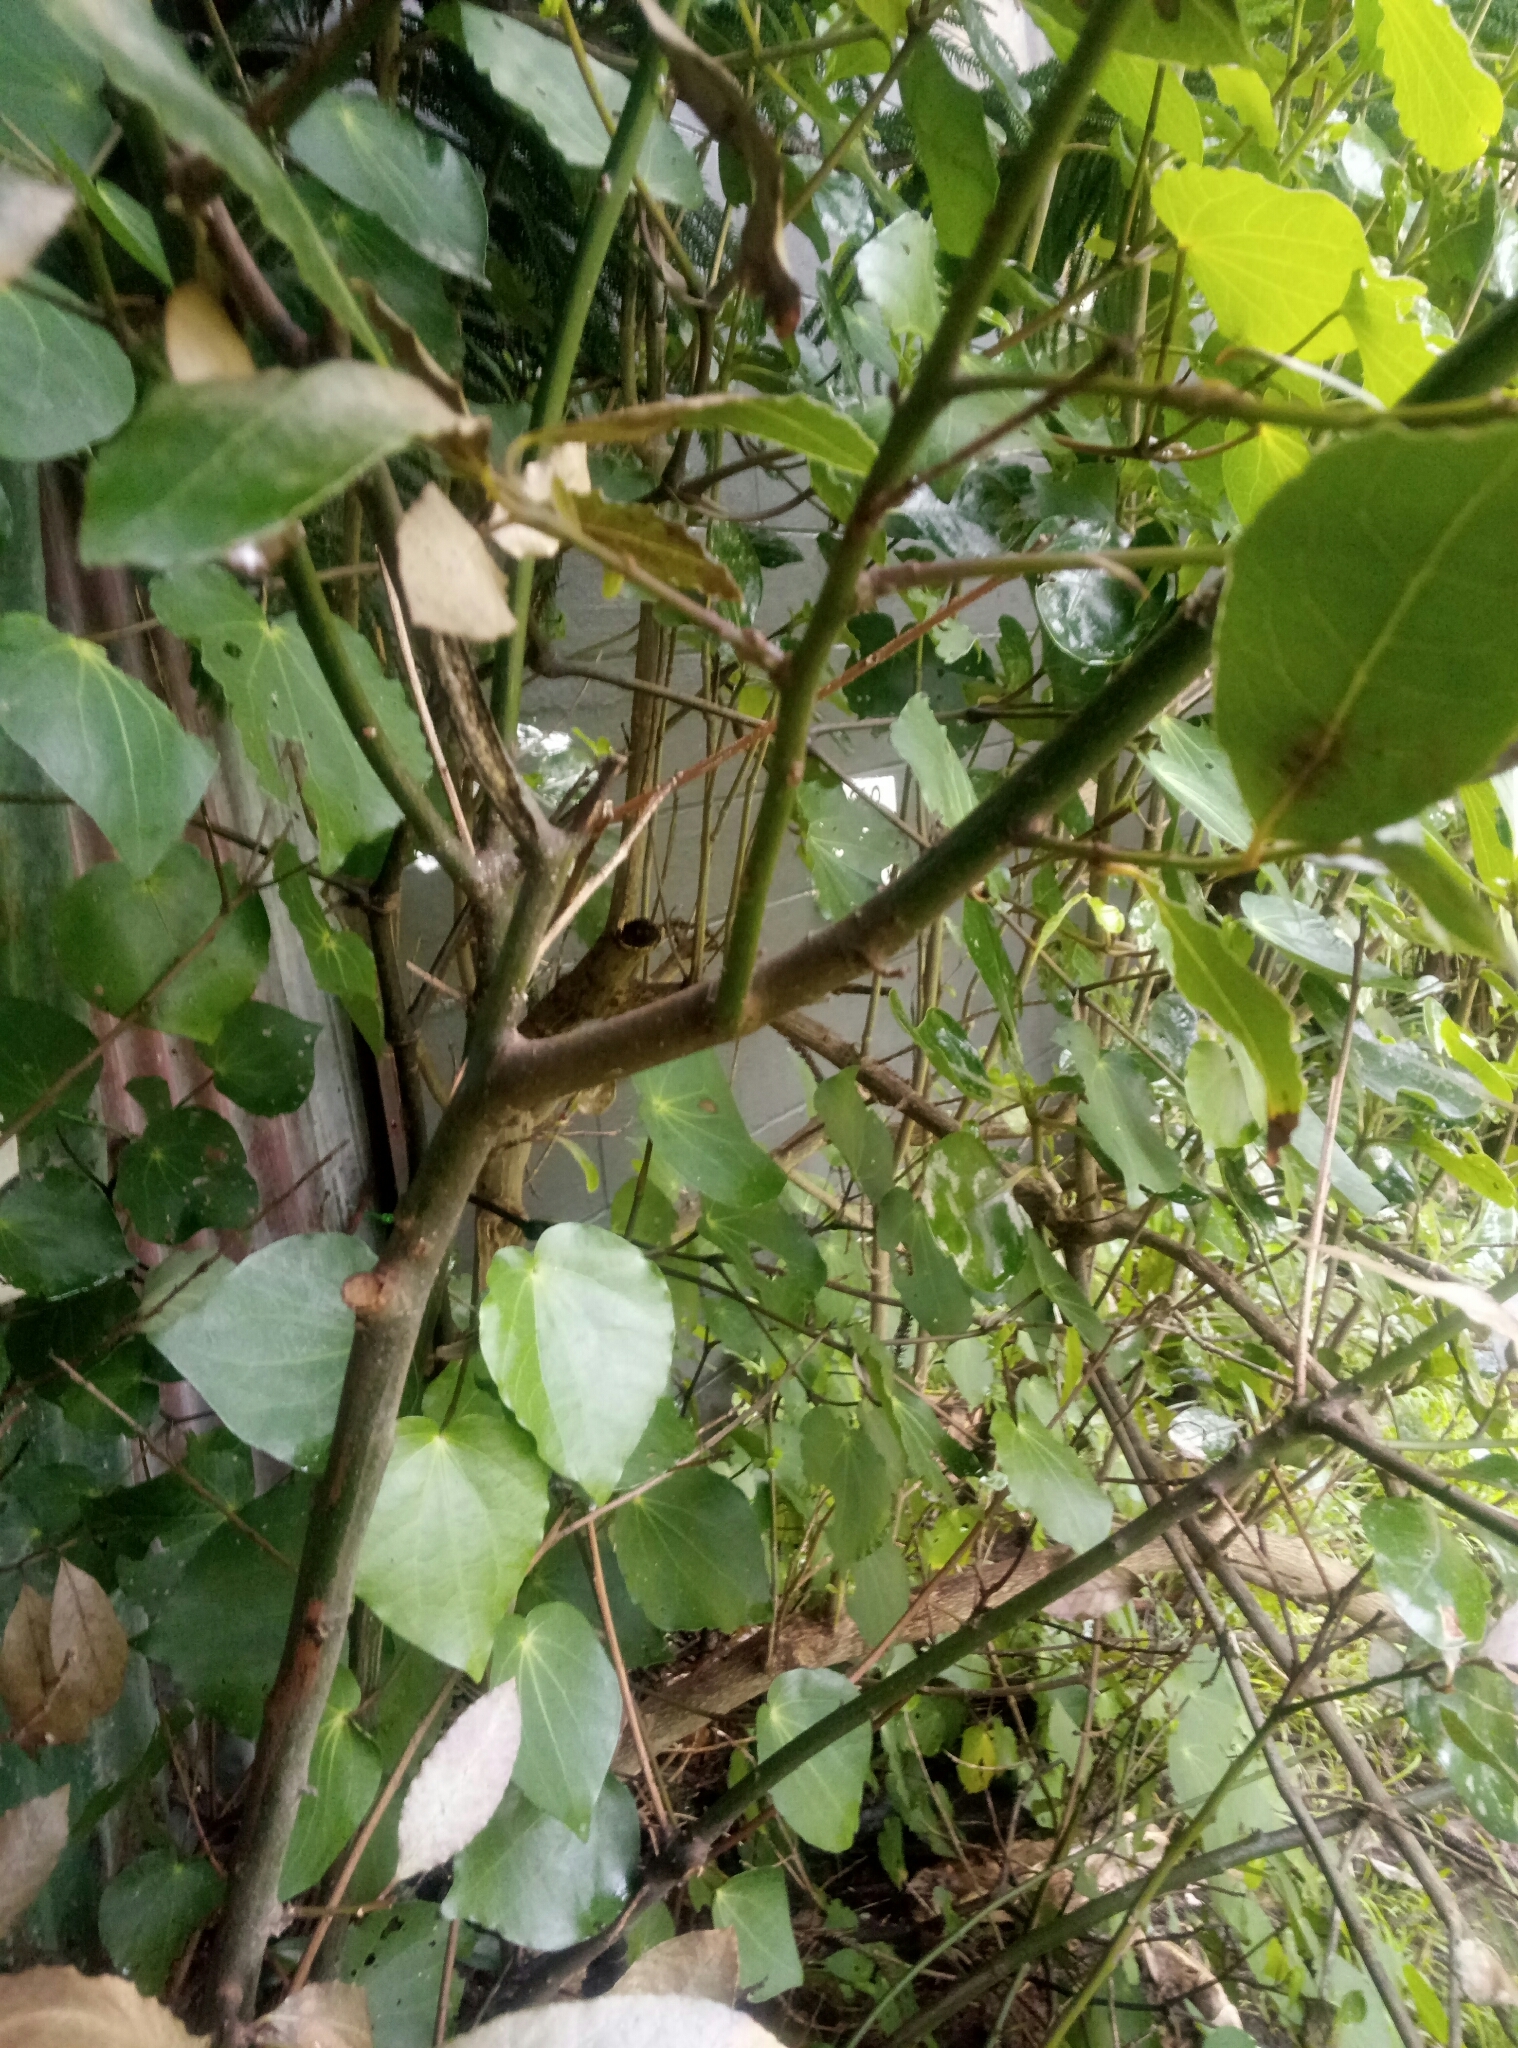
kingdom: Plantae
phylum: Tracheophyta
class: Magnoliopsida
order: Laurales
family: Lauraceae
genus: Laurus
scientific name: Laurus nobilis
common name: Bay
